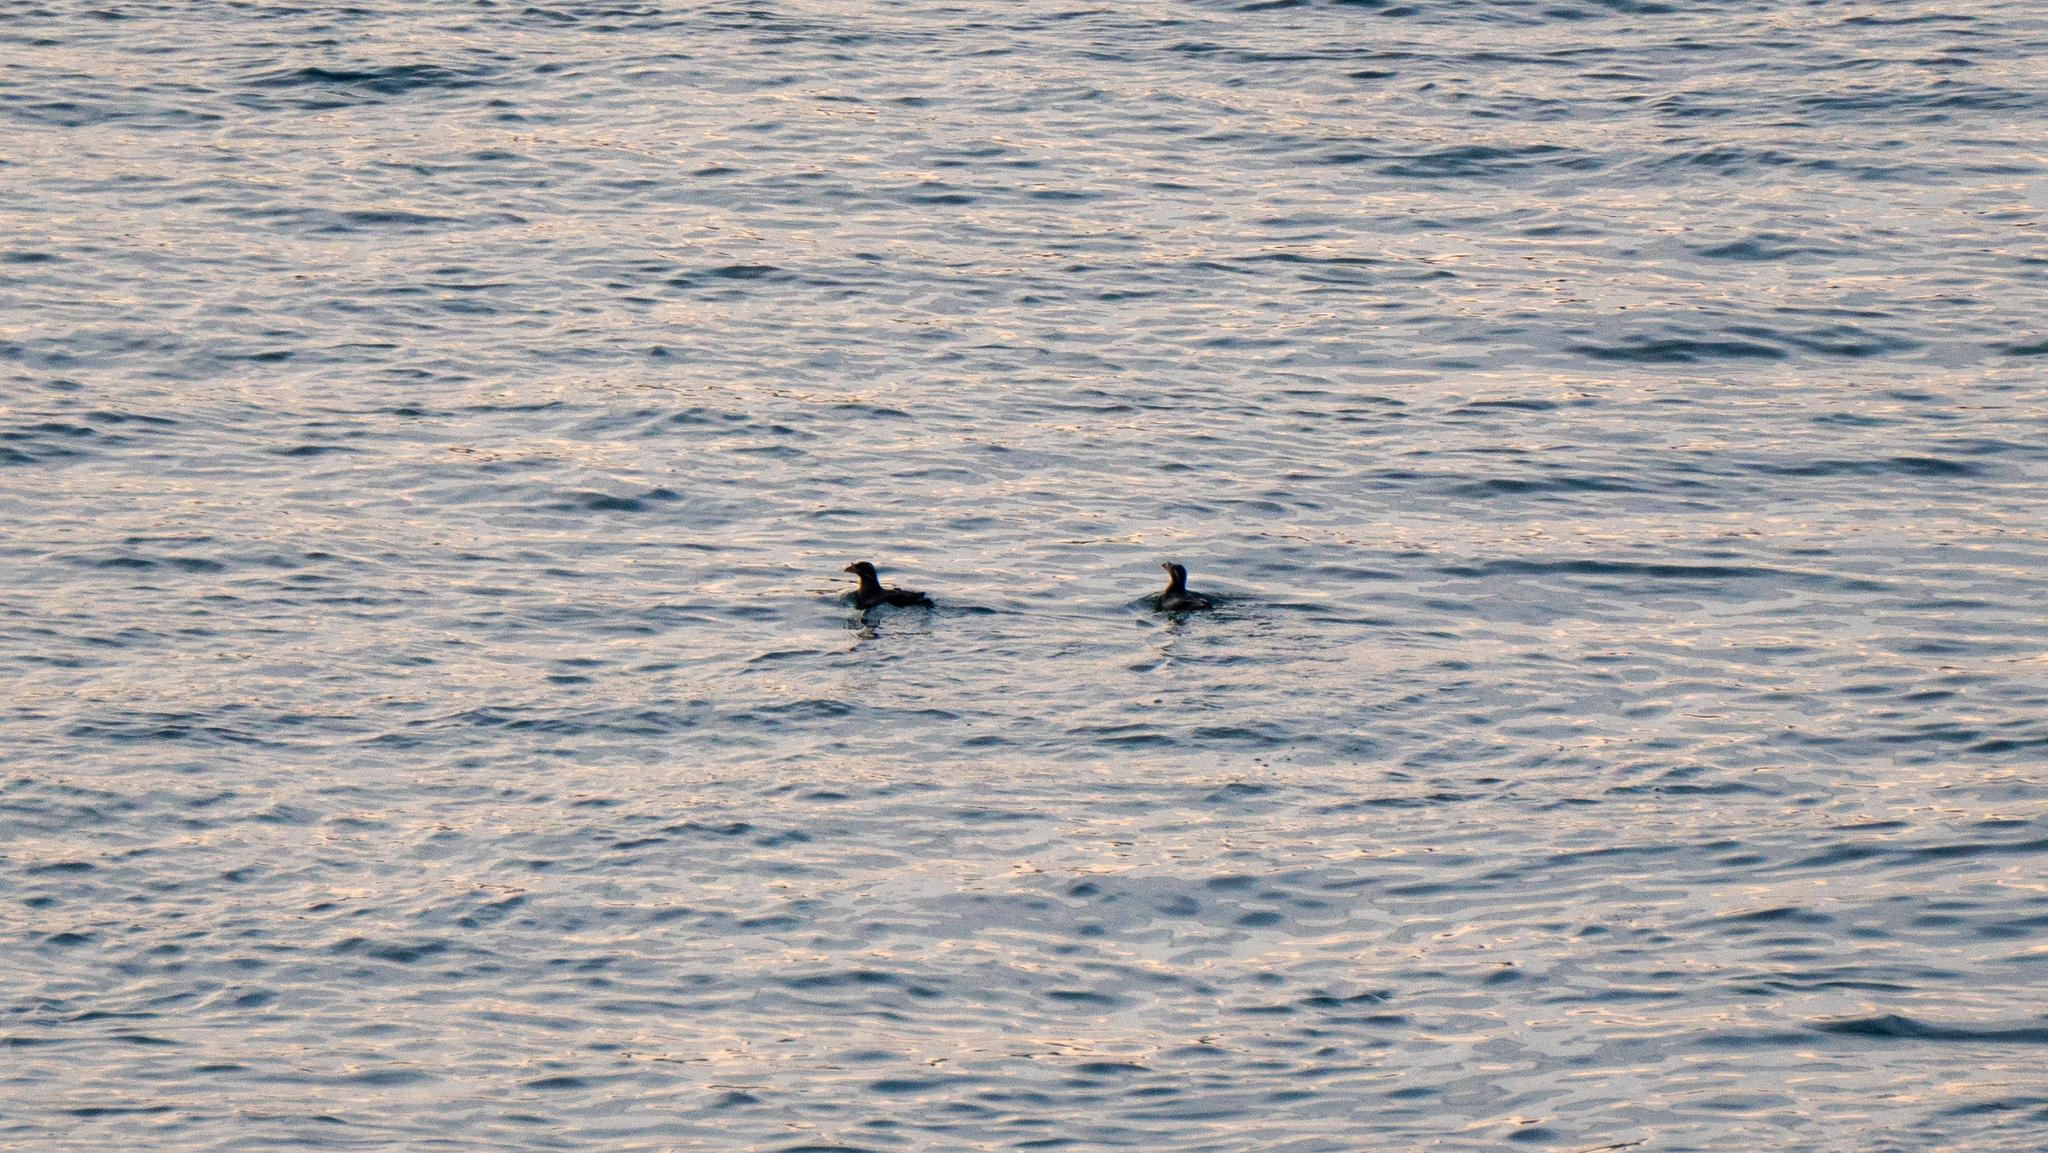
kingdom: Animalia
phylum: Chordata
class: Aves
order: Charadriiformes
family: Alcidae
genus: Cerorhinca
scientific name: Cerorhinca monocerata
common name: Rhinoceros auklet
